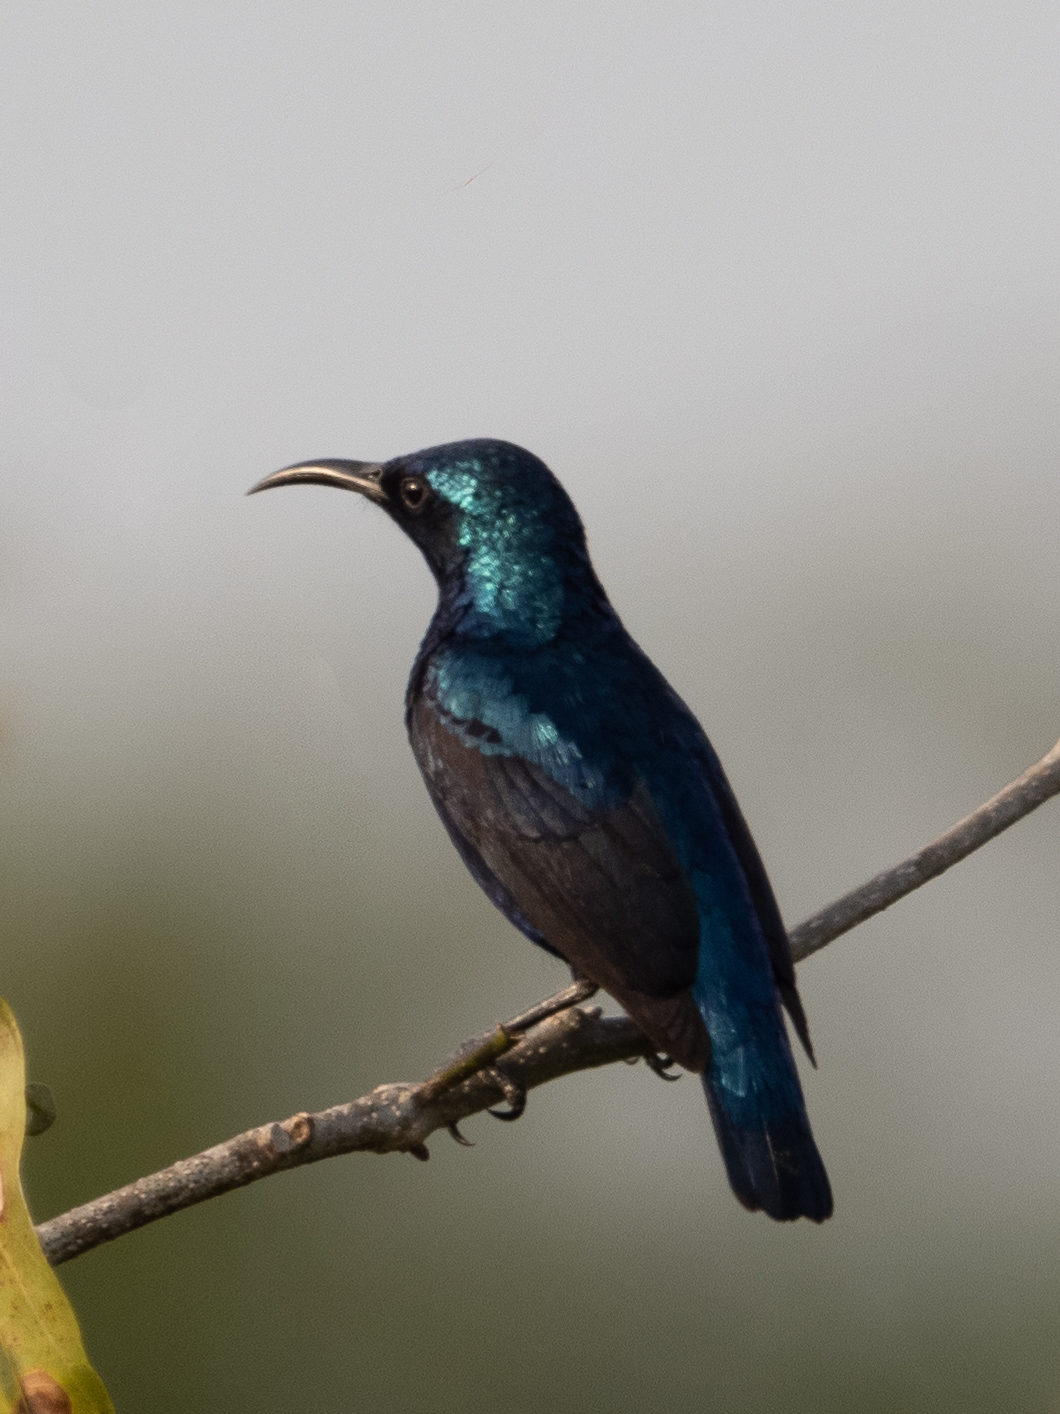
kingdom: Animalia
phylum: Chordata
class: Aves
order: Passeriformes
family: Nectariniidae
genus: Cinnyris
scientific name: Cinnyris asiaticus
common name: Purple sunbird
